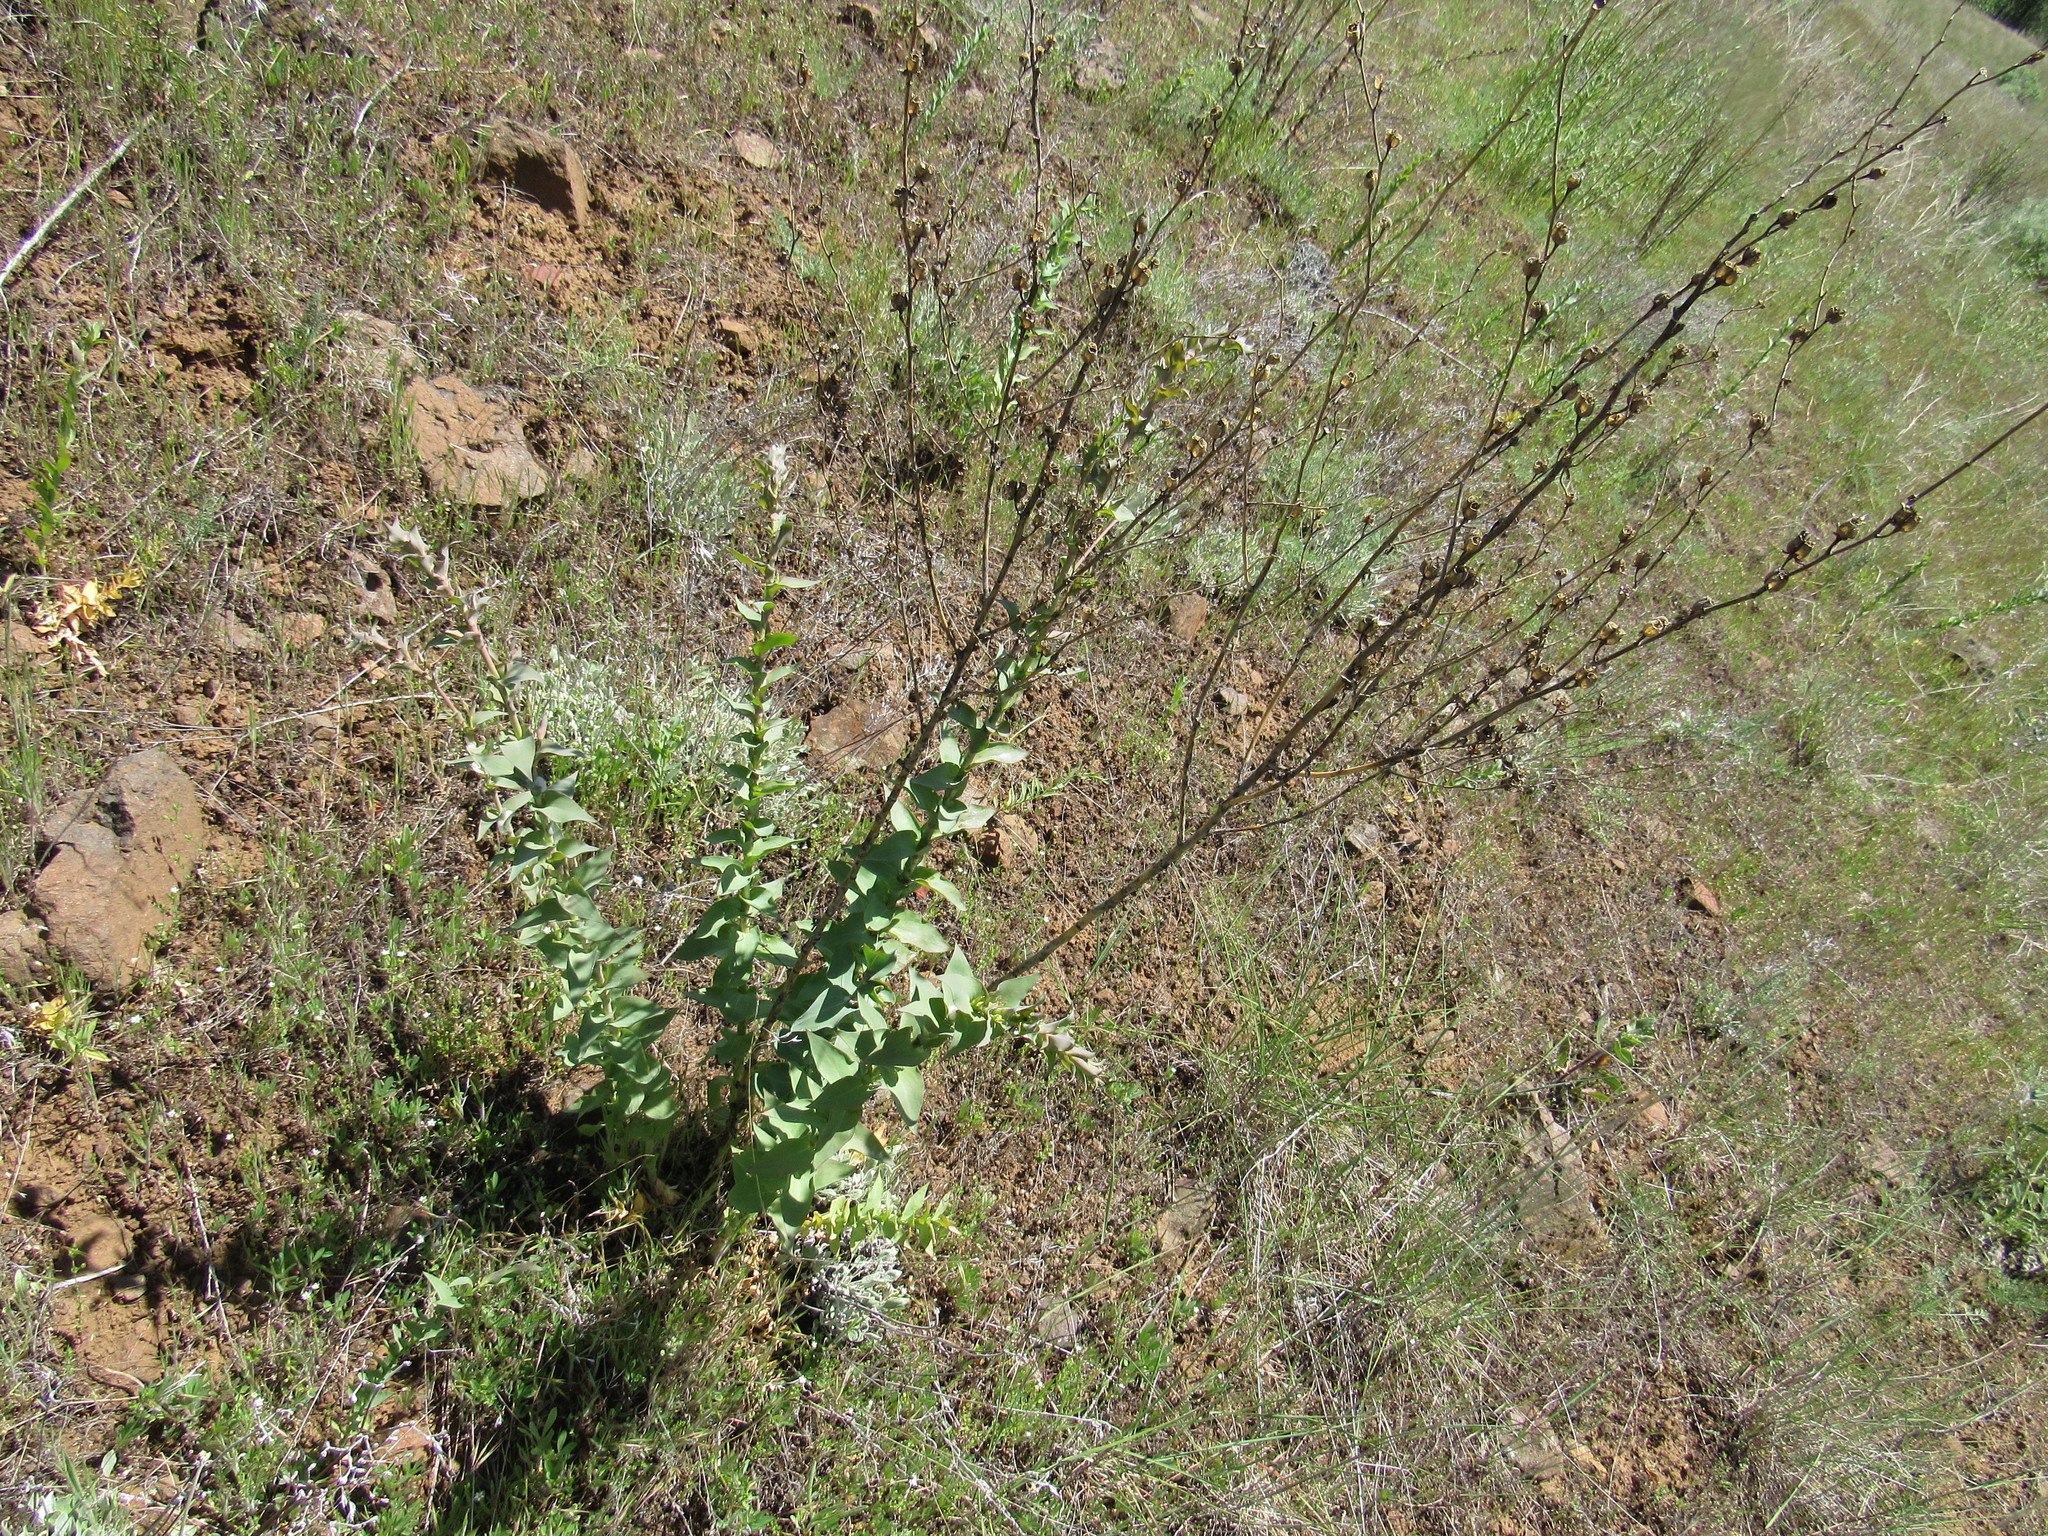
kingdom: Plantae
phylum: Tracheophyta
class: Magnoliopsida
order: Lamiales
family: Plantaginaceae
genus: Linaria
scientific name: Linaria dalmatica
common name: Dalmatian toadflax
